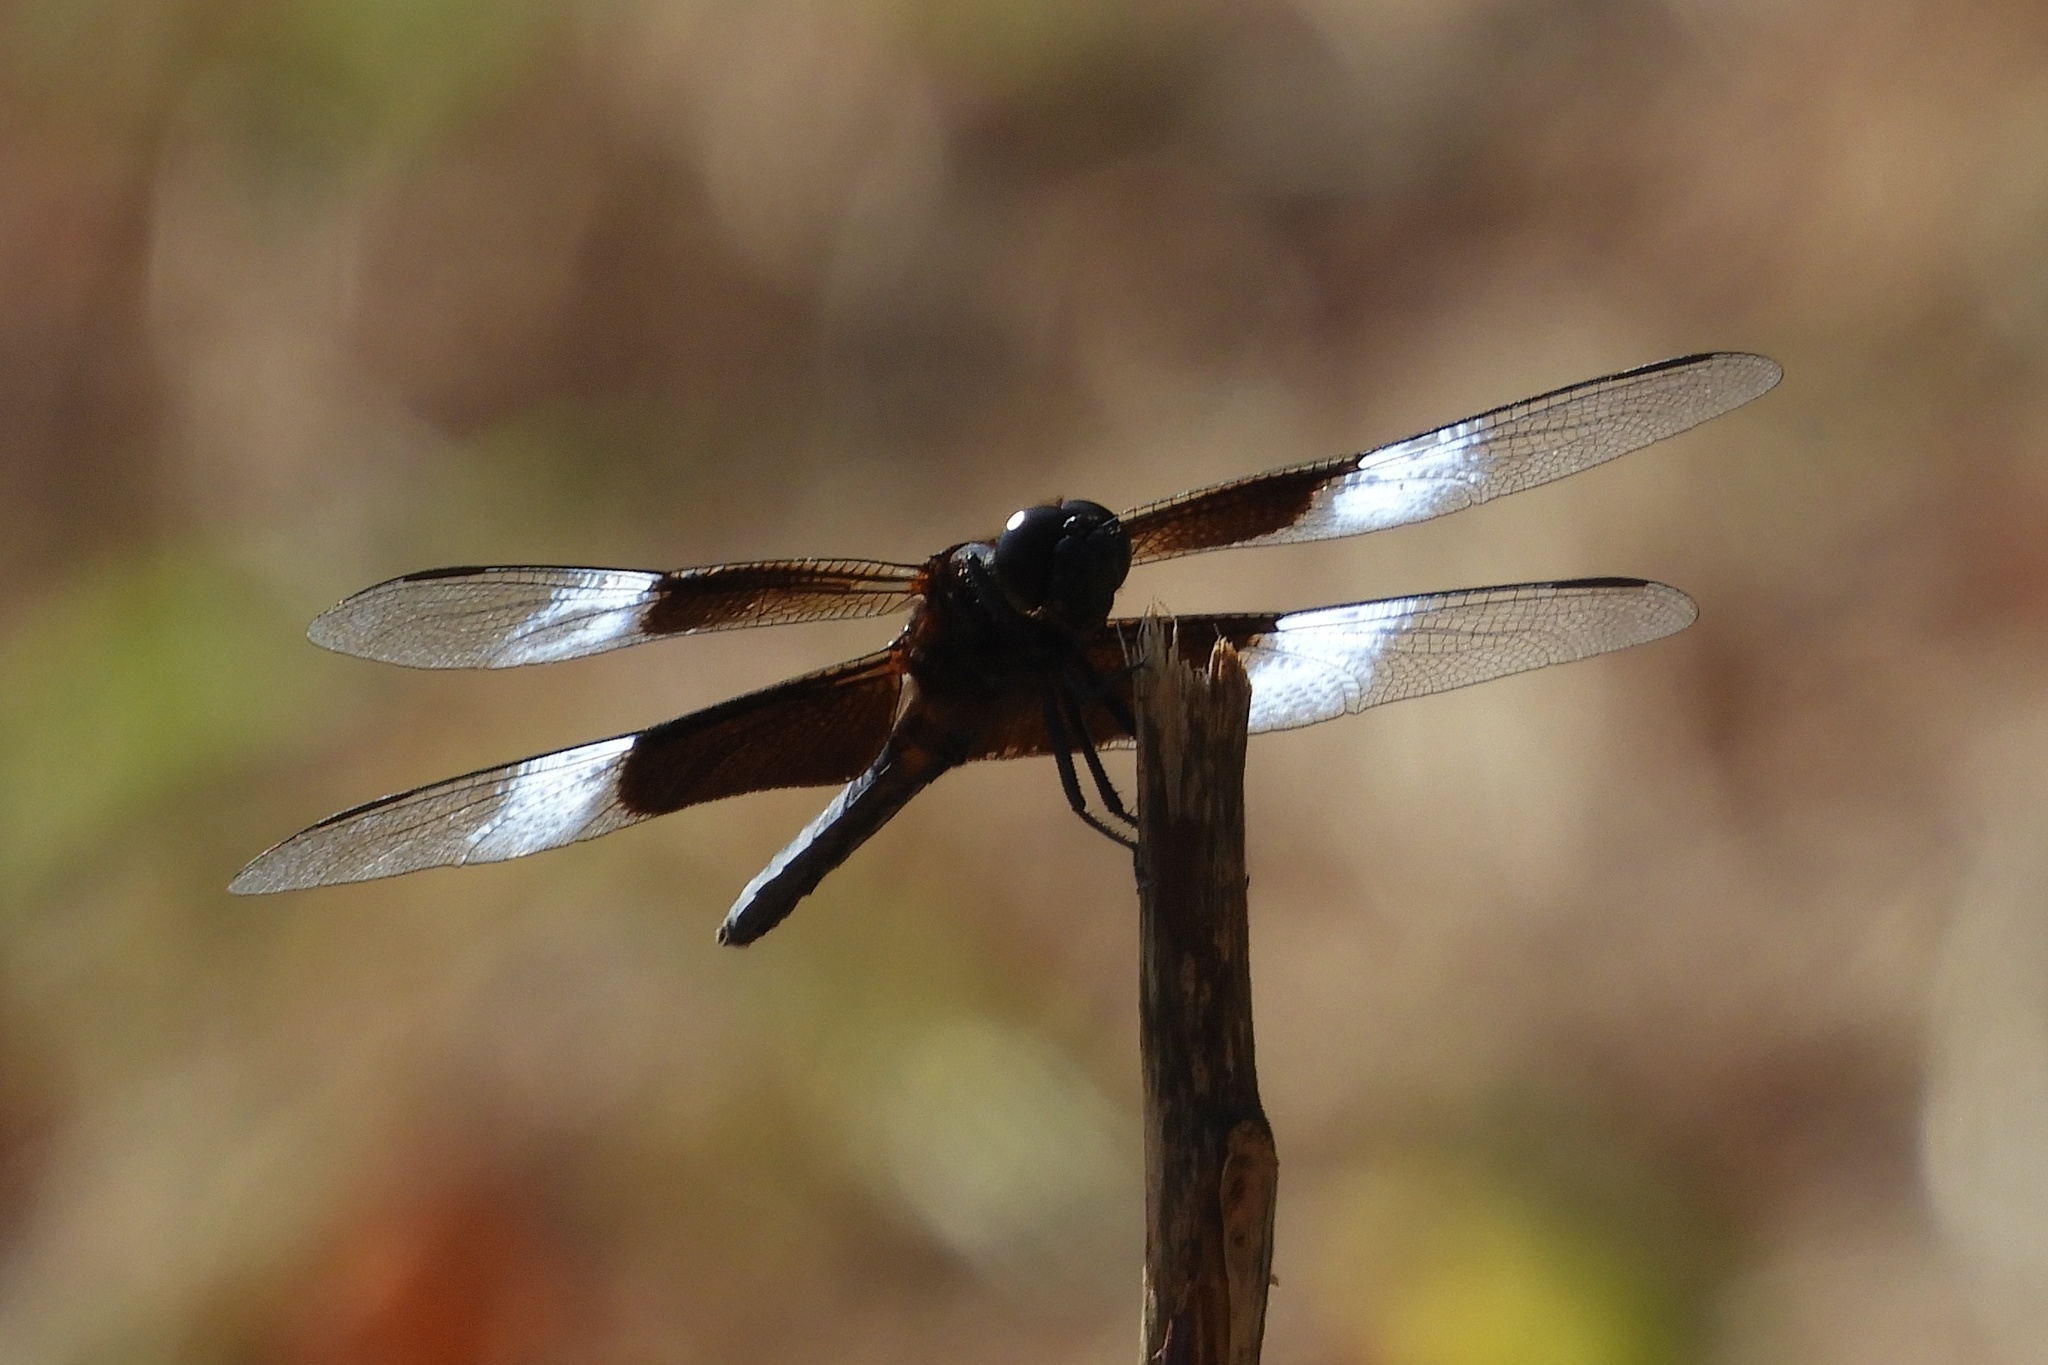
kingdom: Animalia
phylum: Arthropoda
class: Insecta
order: Odonata
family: Libellulidae
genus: Libellula
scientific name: Libellula luctuosa
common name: Widow skimmer
